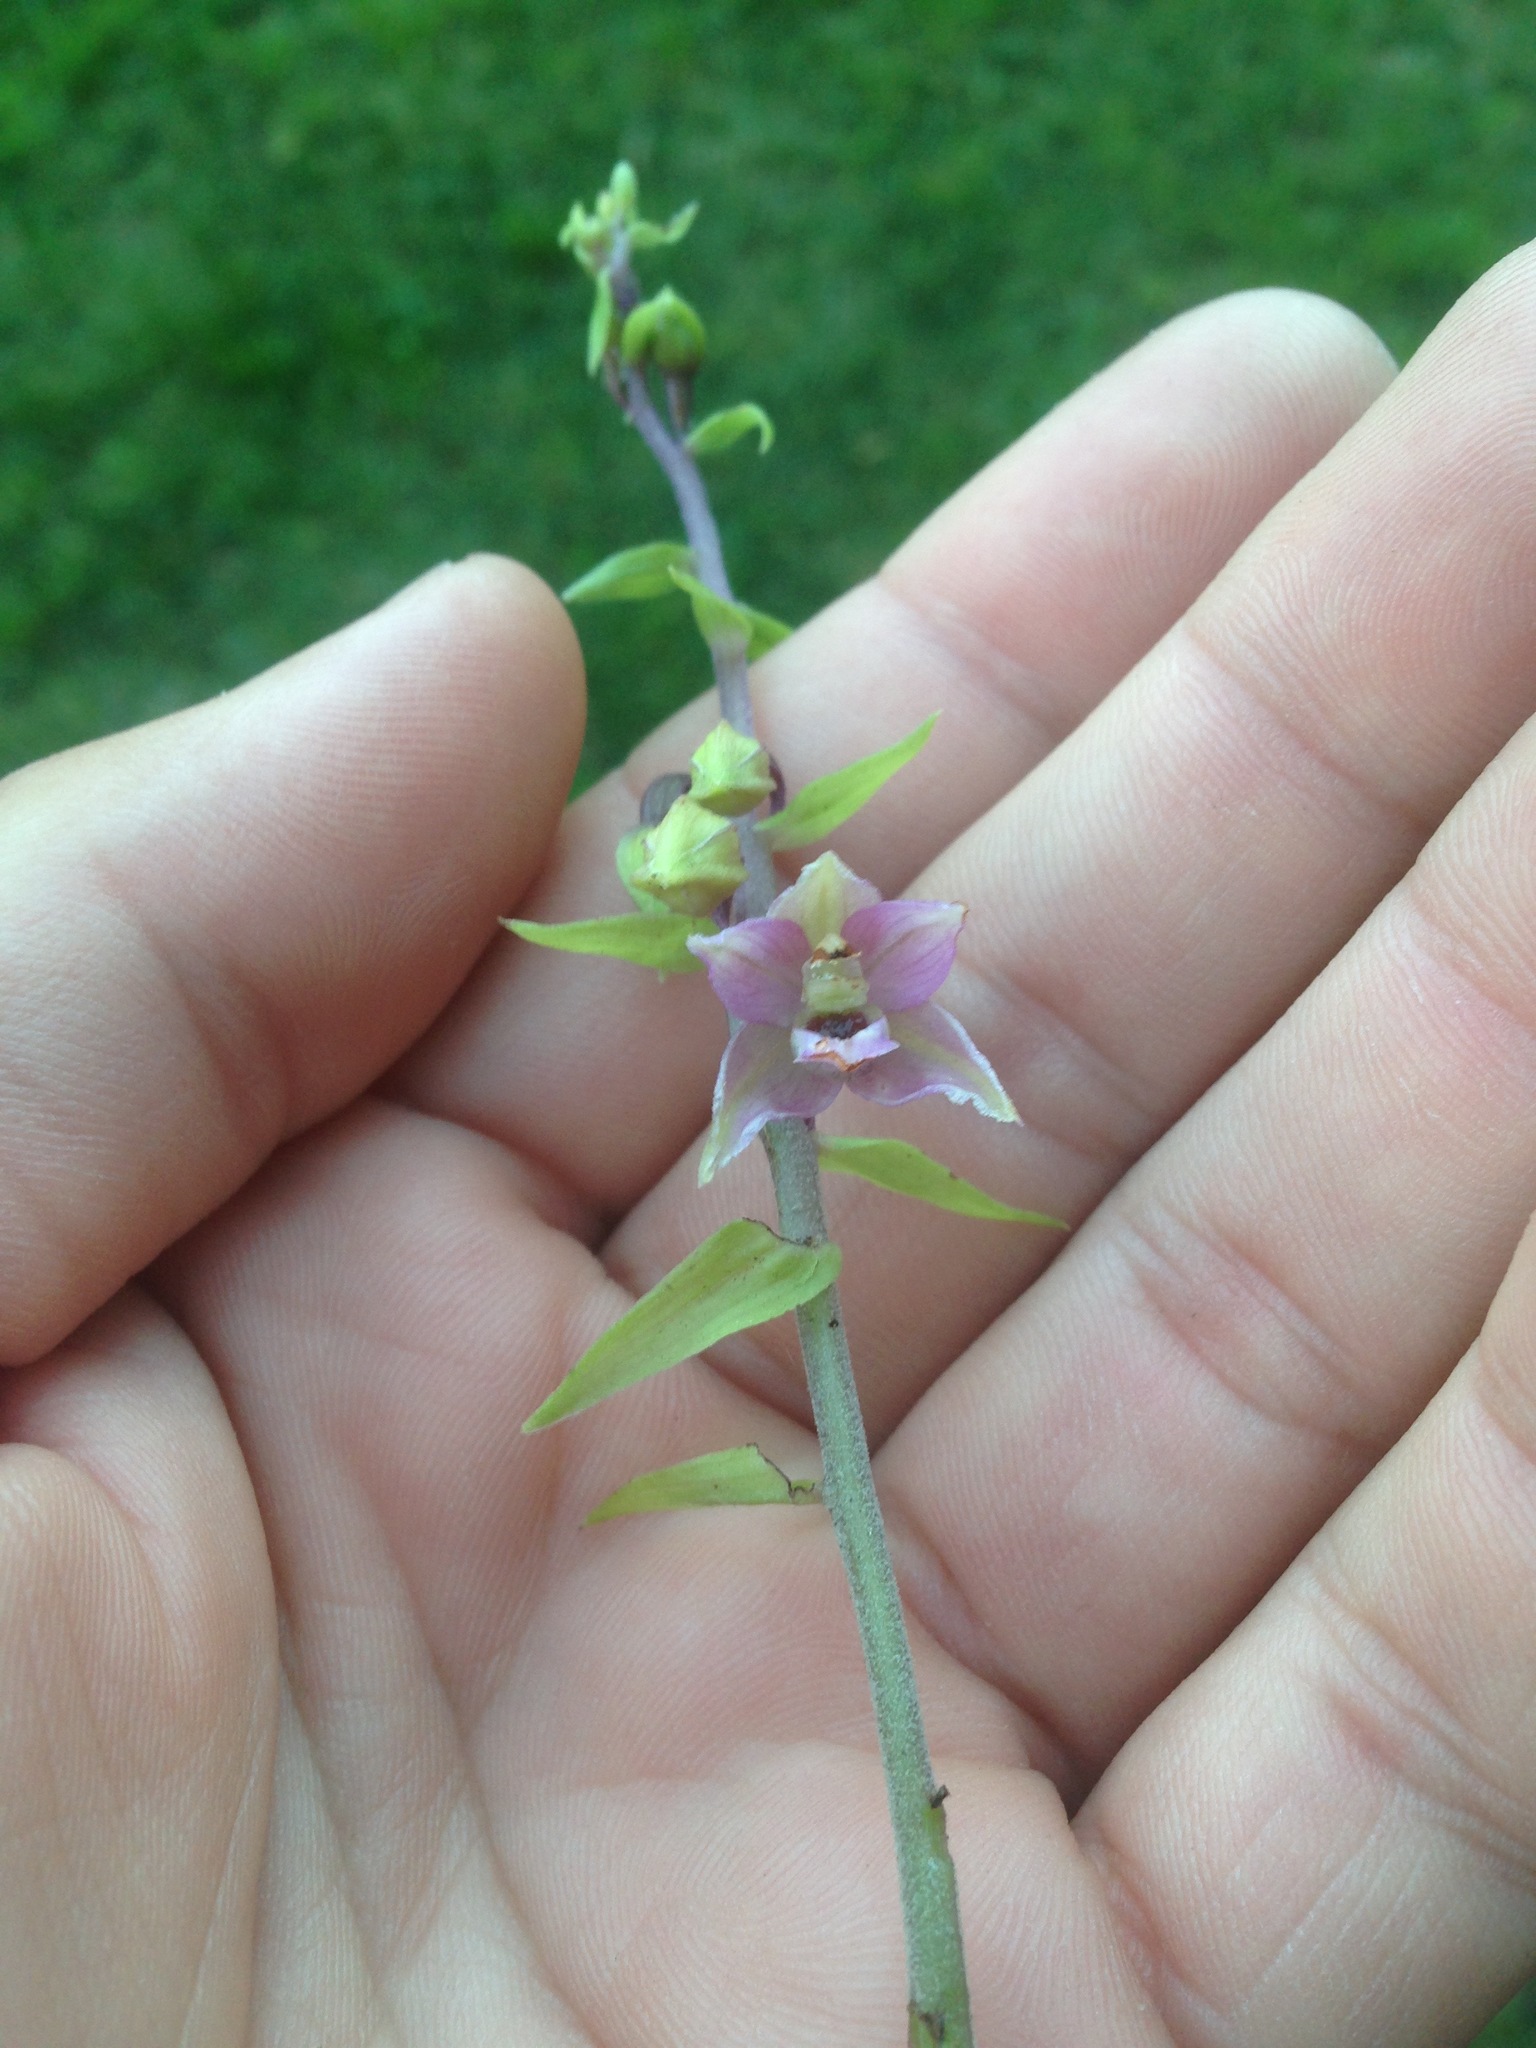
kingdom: Plantae
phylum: Tracheophyta
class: Liliopsida
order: Asparagales
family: Orchidaceae
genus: Epipactis
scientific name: Epipactis helleborine
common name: Broad-leaved helleborine
